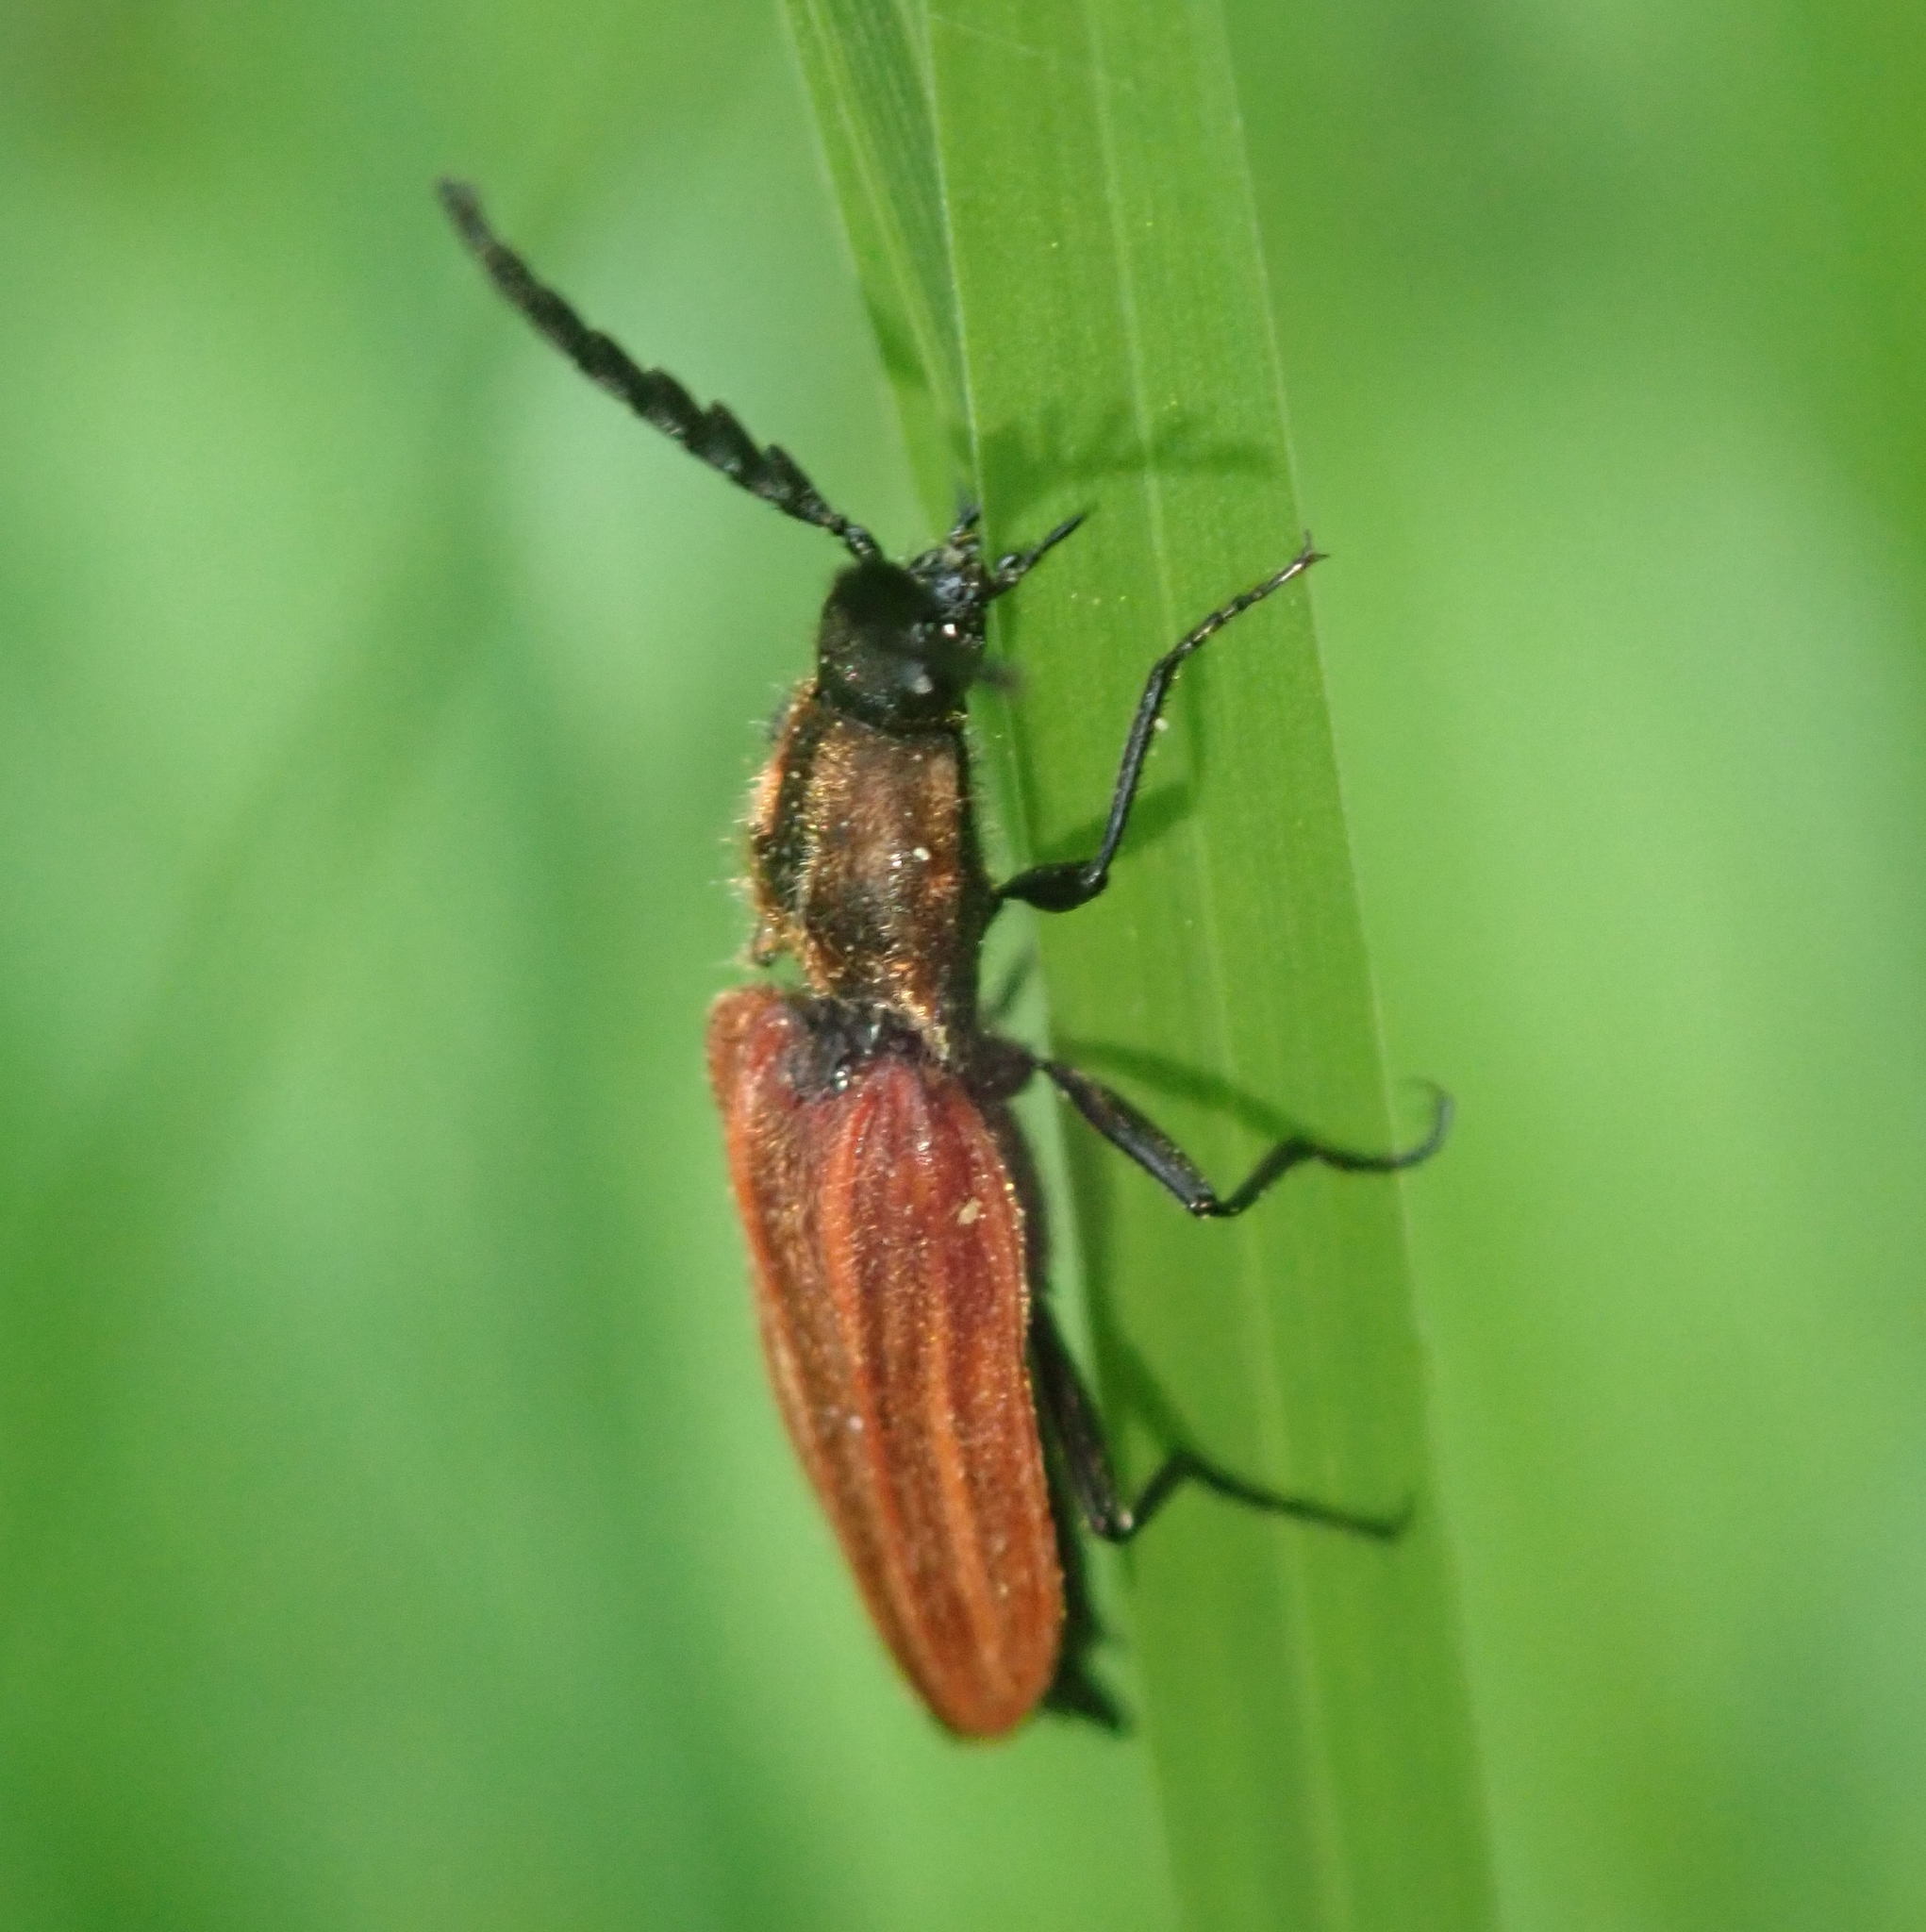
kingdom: Animalia
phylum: Arthropoda
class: Insecta
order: Coleoptera
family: Elateridae
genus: Anostirus
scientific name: Anostirus purpureus
